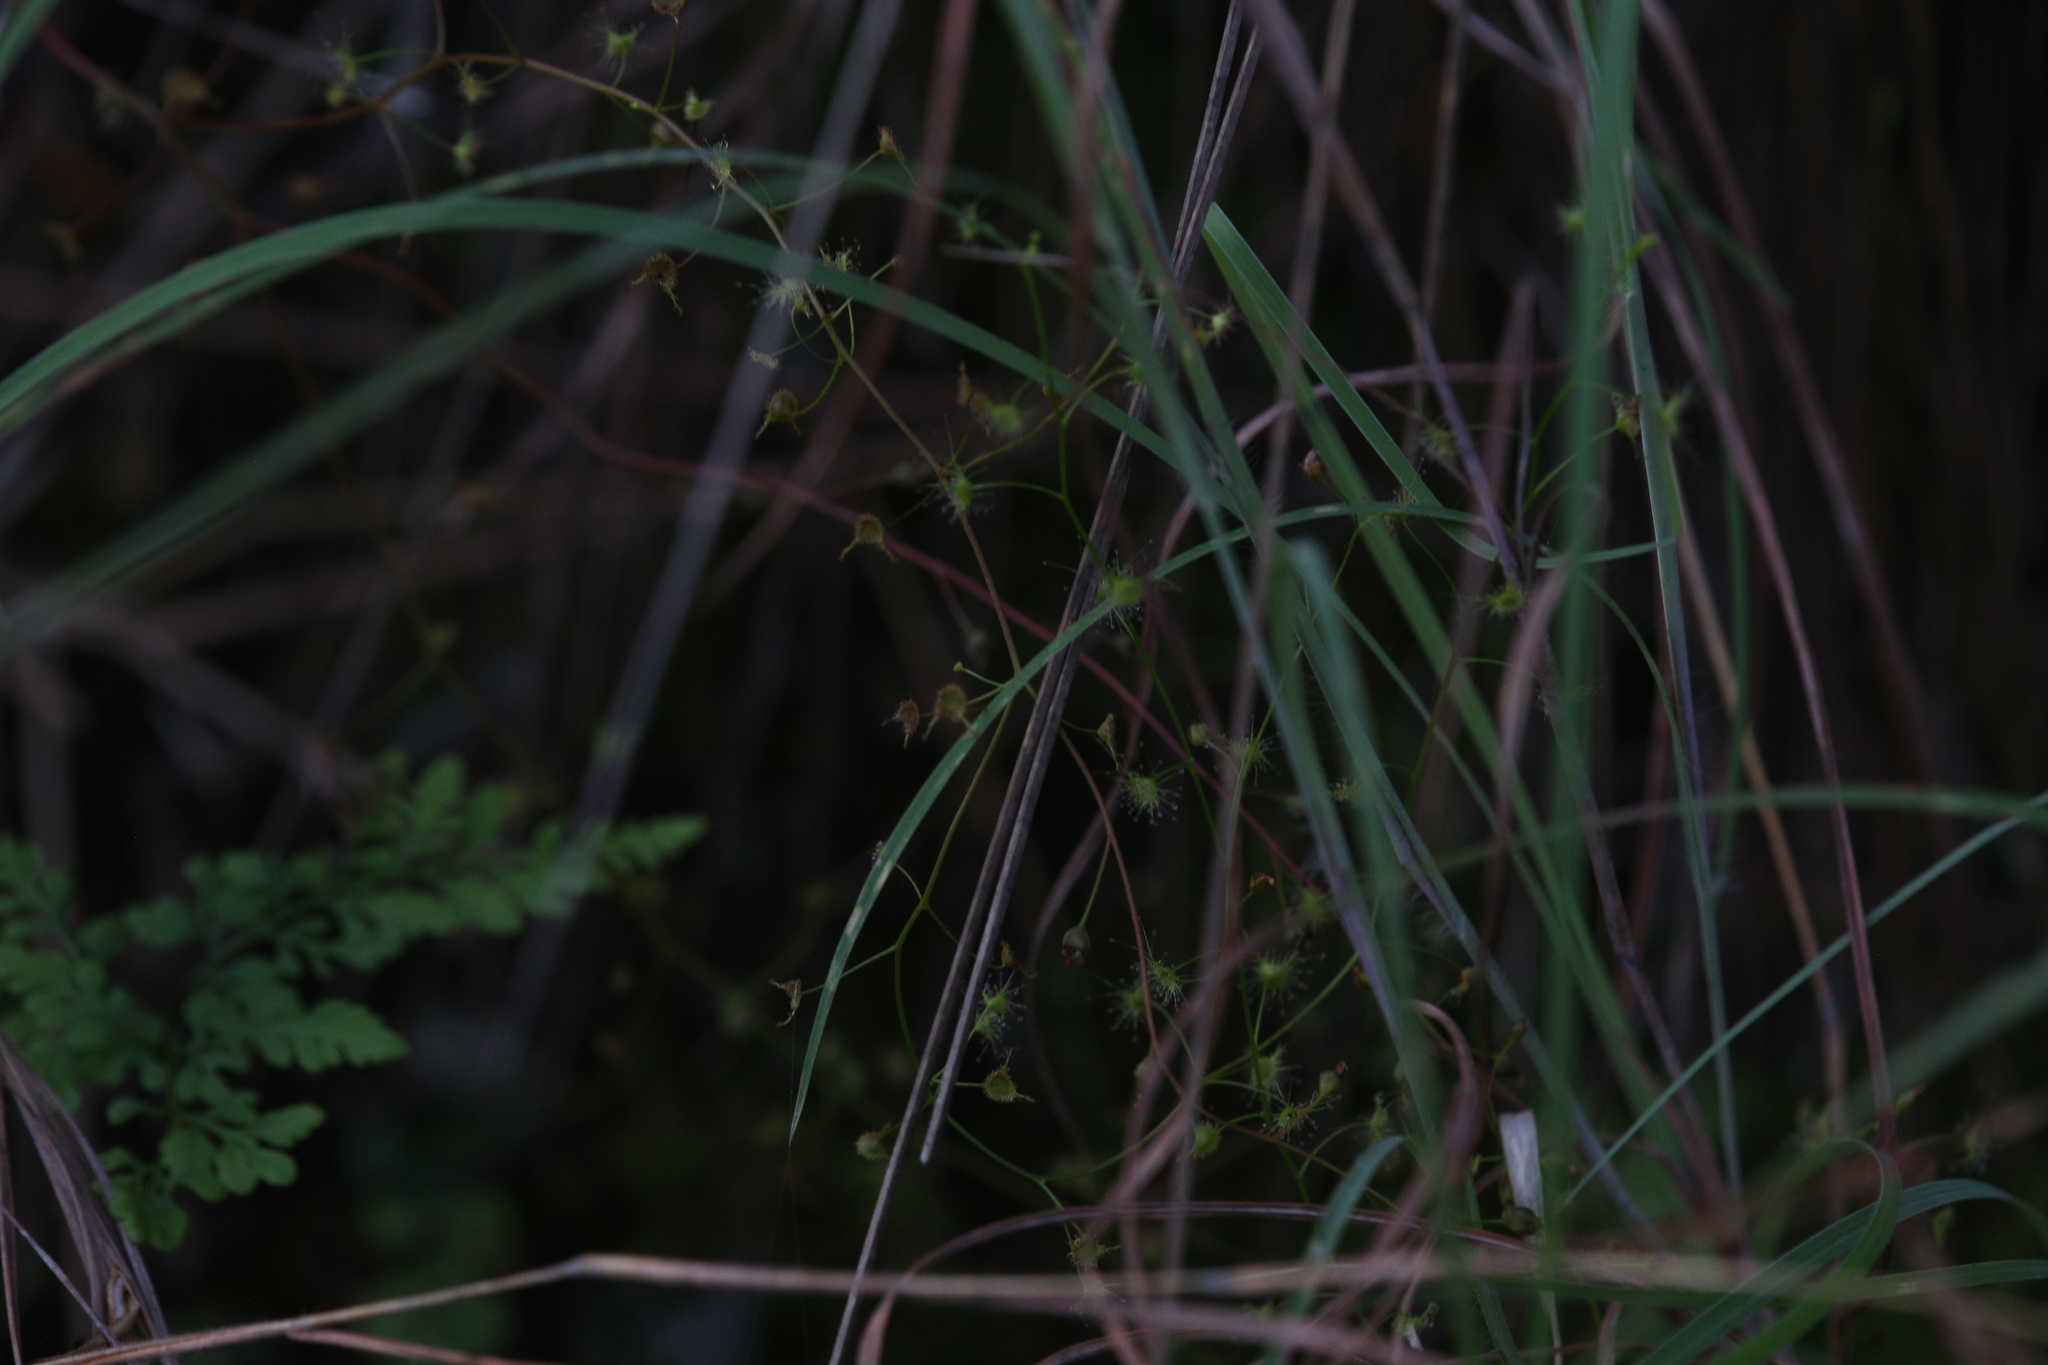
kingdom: Plantae
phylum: Tracheophyta
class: Magnoliopsida
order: Caryophyllales
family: Droseraceae
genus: Drosera
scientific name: Drosera peltata
